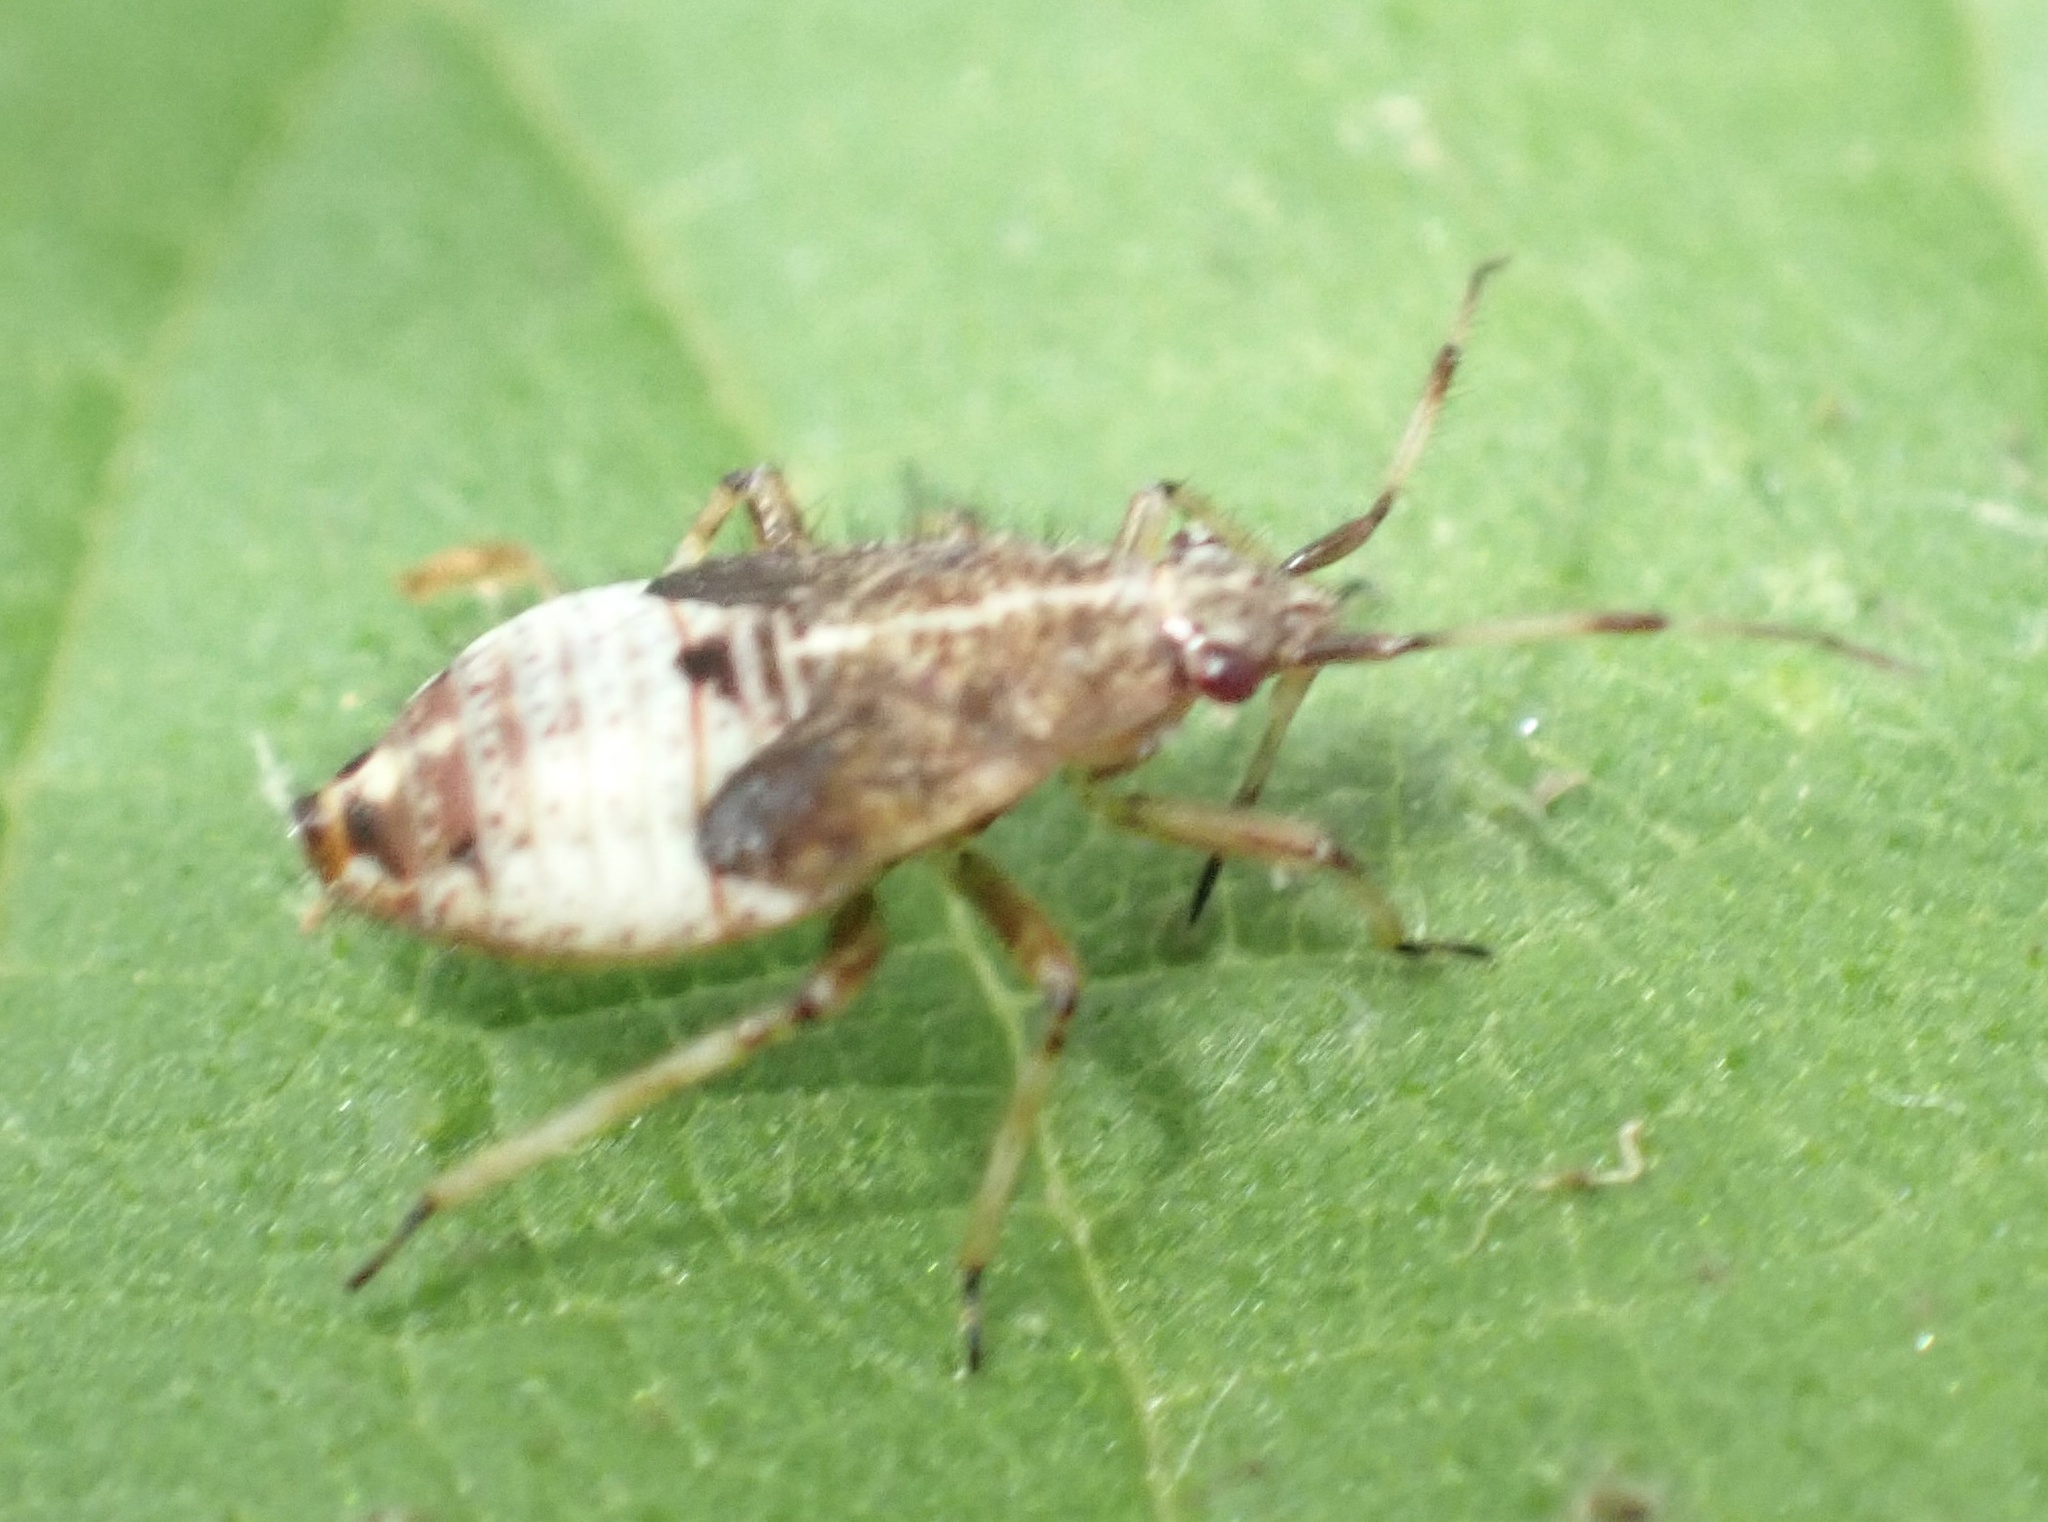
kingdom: Animalia
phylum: Arthropoda
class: Insecta
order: Hemiptera
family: Miridae
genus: Deraeocoris
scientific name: Deraeocoris flavilinea
